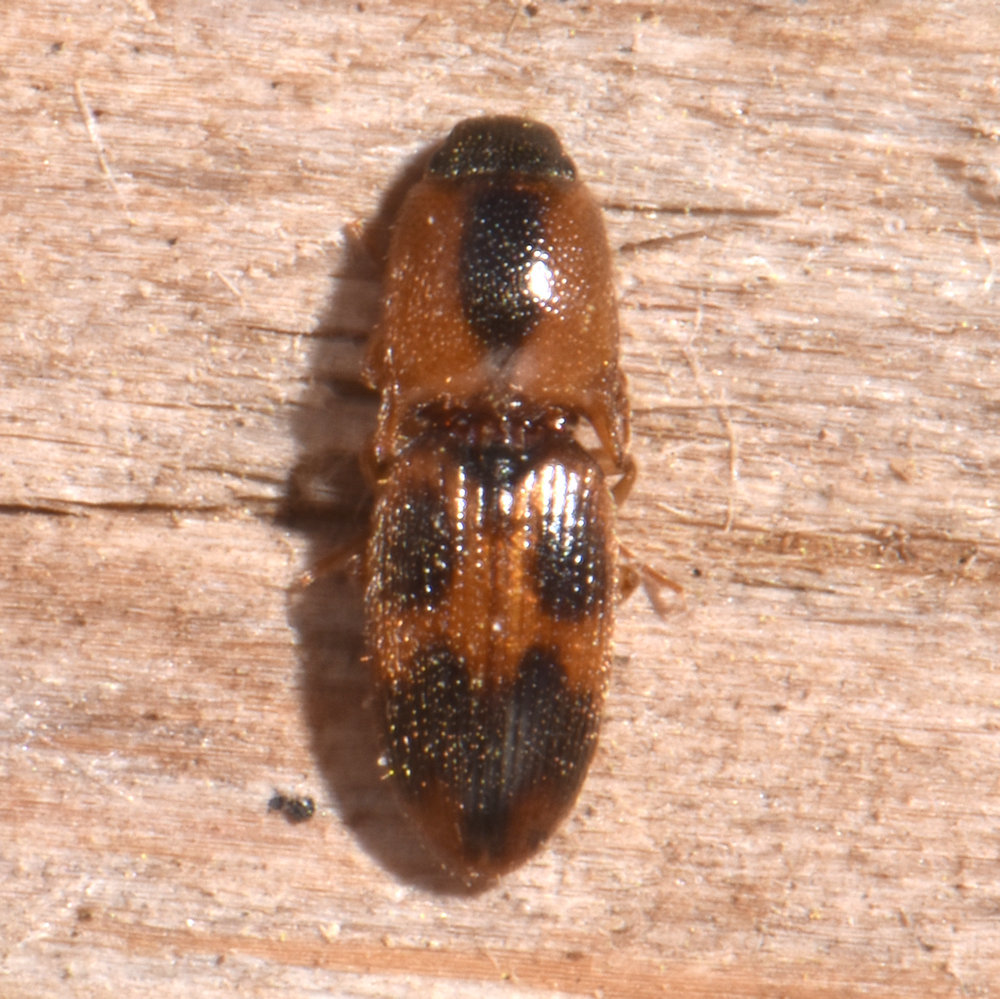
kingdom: Animalia
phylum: Arthropoda
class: Insecta
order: Coleoptera
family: Elateridae
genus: Aeolus
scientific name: Aeolus mellillus
